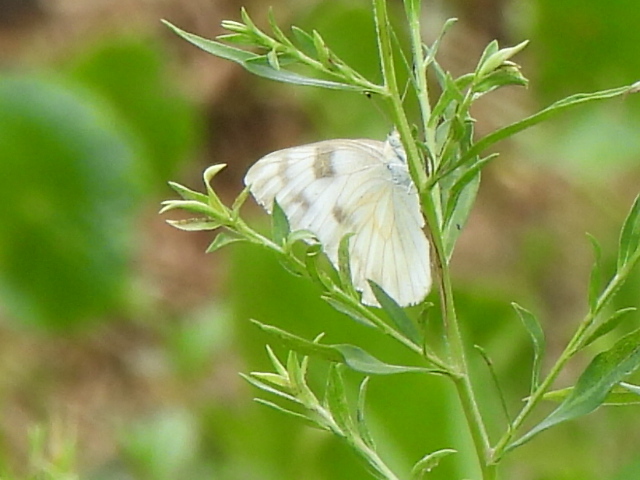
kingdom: Animalia
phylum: Arthropoda
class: Insecta
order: Lepidoptera
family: Pieridae
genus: Pontia
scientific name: Pontia protodice
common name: Checkered white
